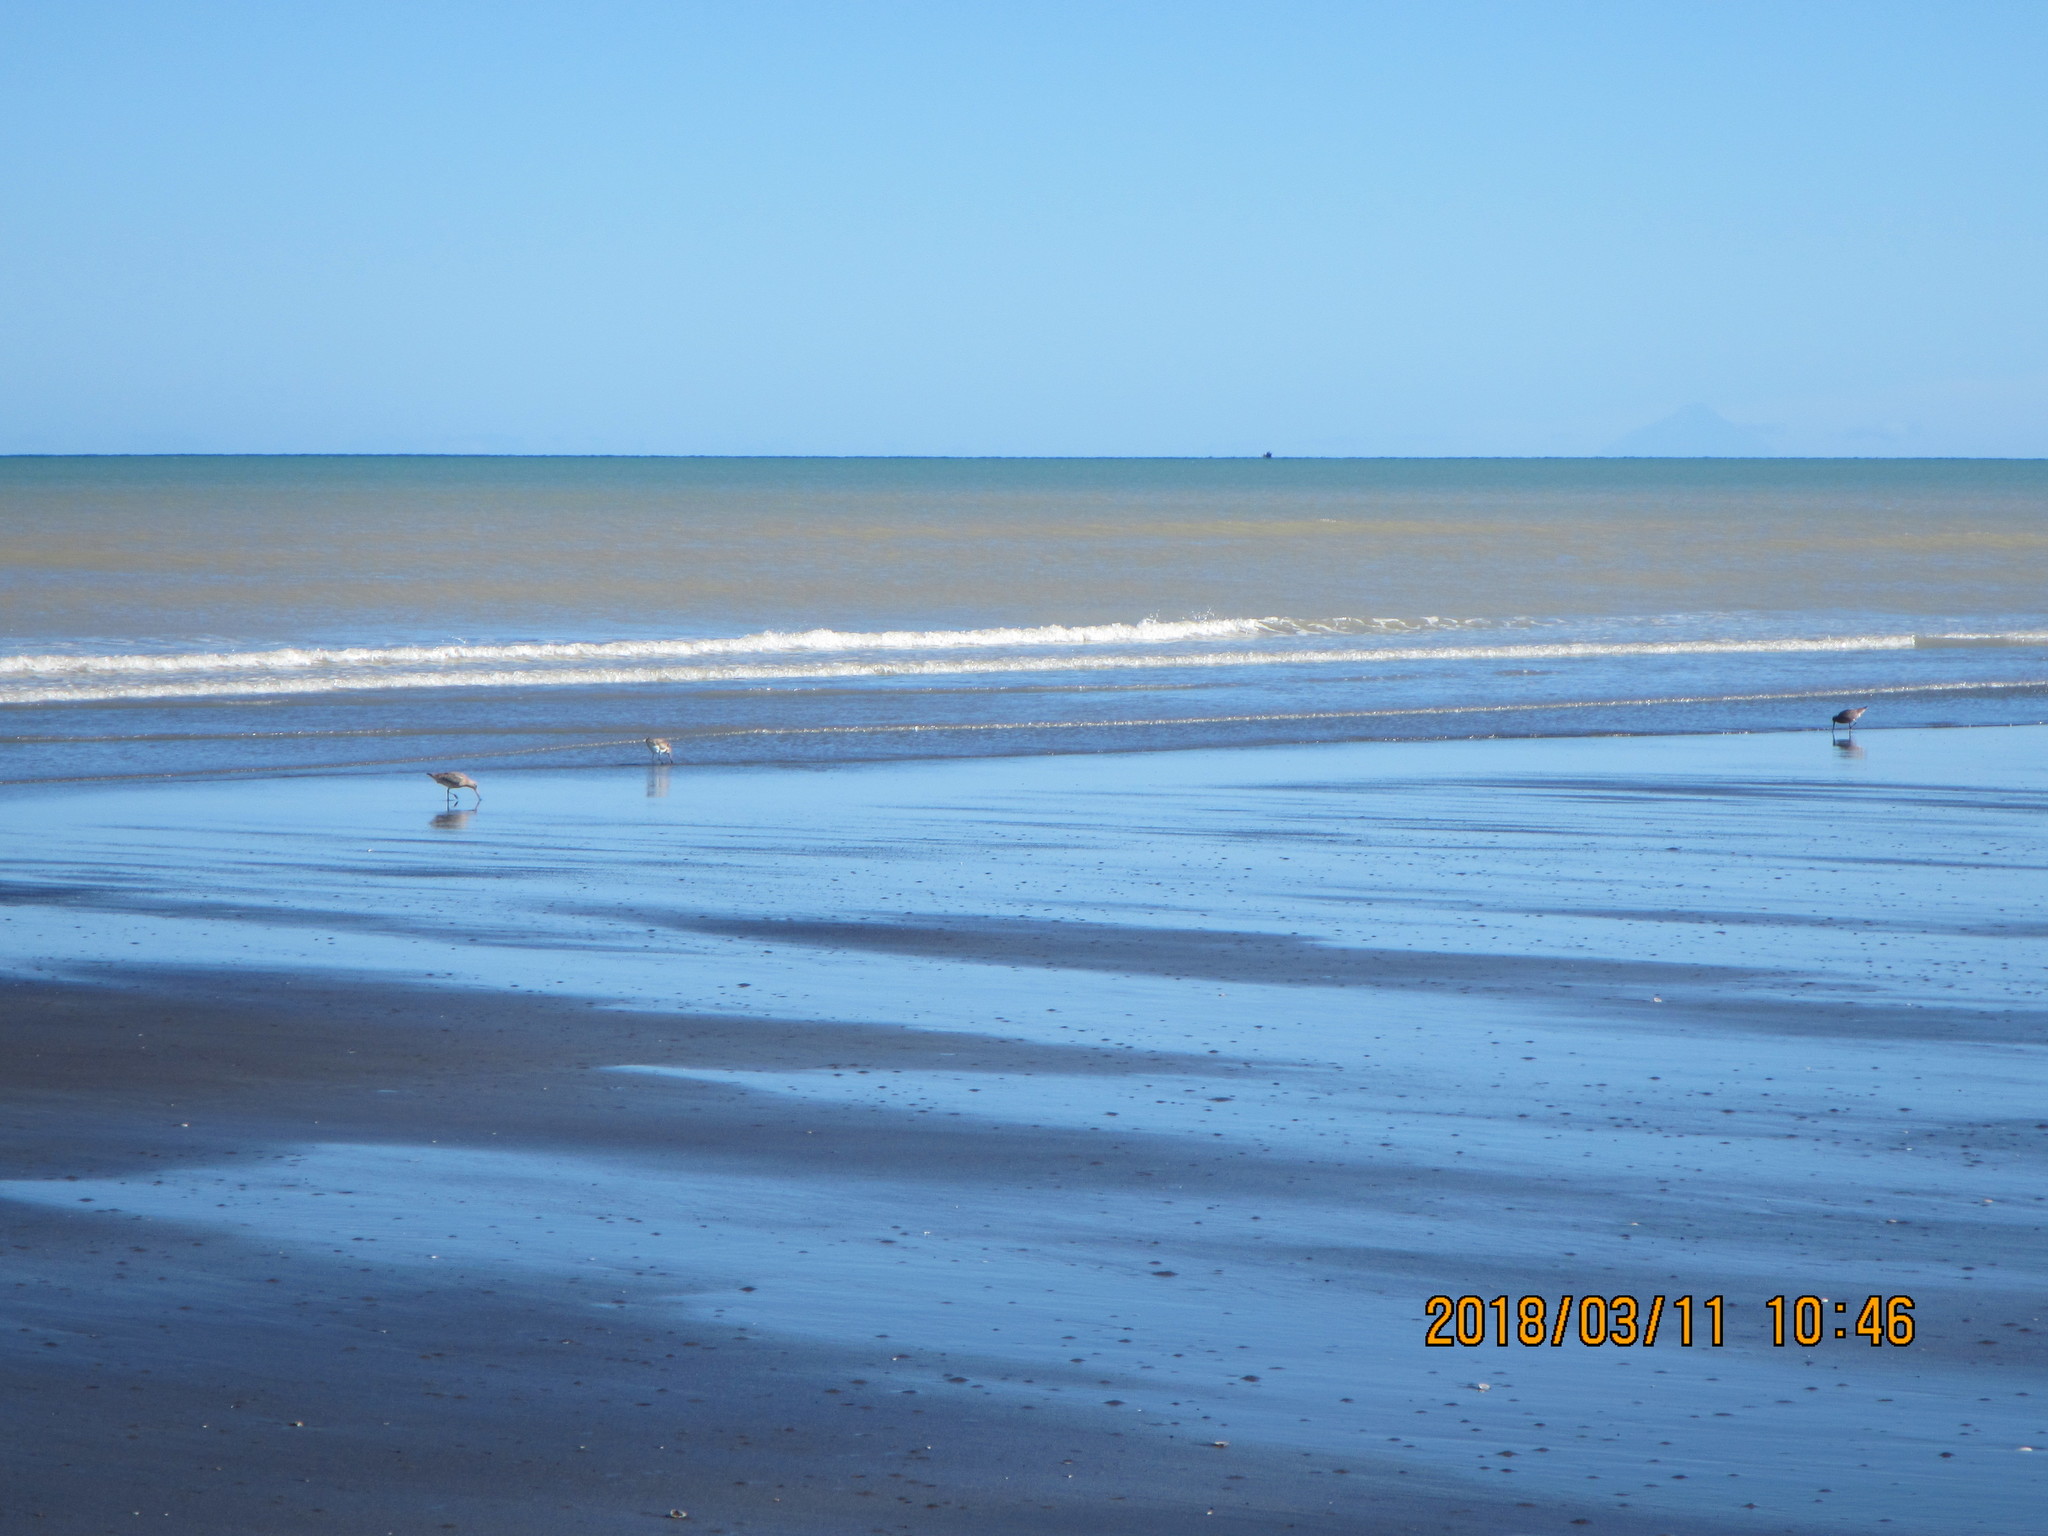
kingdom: Animalia
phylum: Chordata
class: Aves
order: Charadriiformes
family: Scolopacidae
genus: Limosa
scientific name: Limosa lapponica
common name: Bar-tailed godwit
